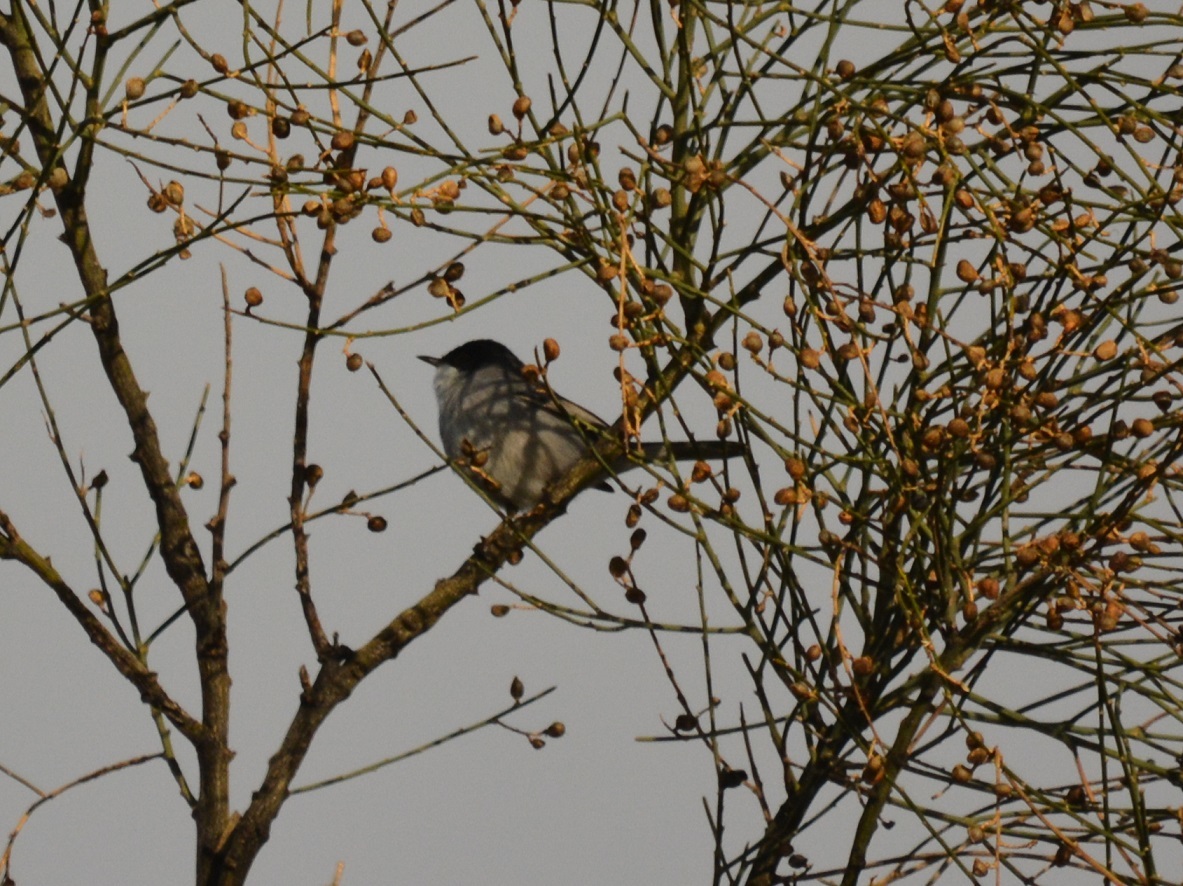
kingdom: Animalia
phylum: Chordata
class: Aves
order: Passeriformes
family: Sylviidae
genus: Curruca
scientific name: Curruca melanocephala
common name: Sardinian warbler
